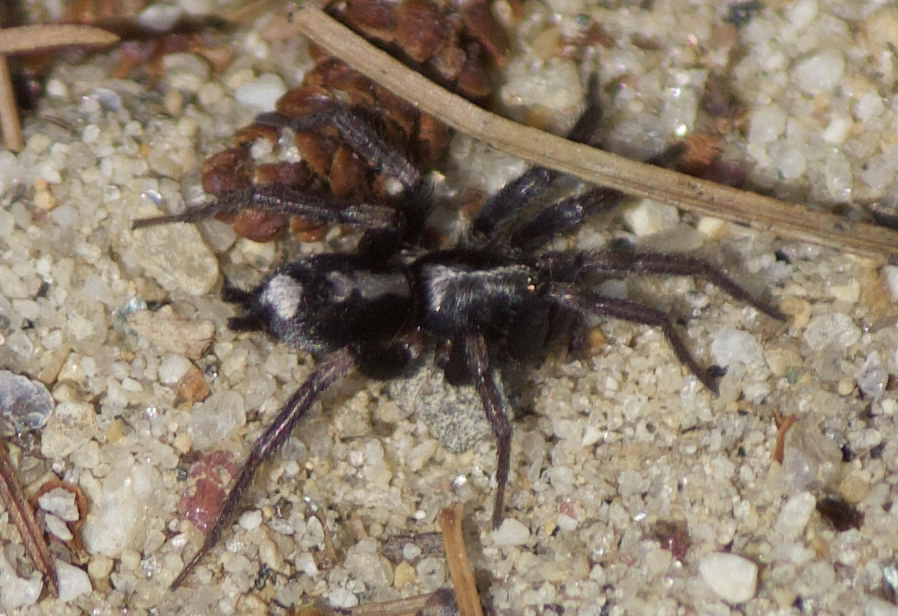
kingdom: Animalia
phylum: Arthropoda
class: Arachnida
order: Araneae
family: Gnaphosidae
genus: Herpyllus
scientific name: Herpyllus ecclesiasticus
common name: Eastern parson spider
